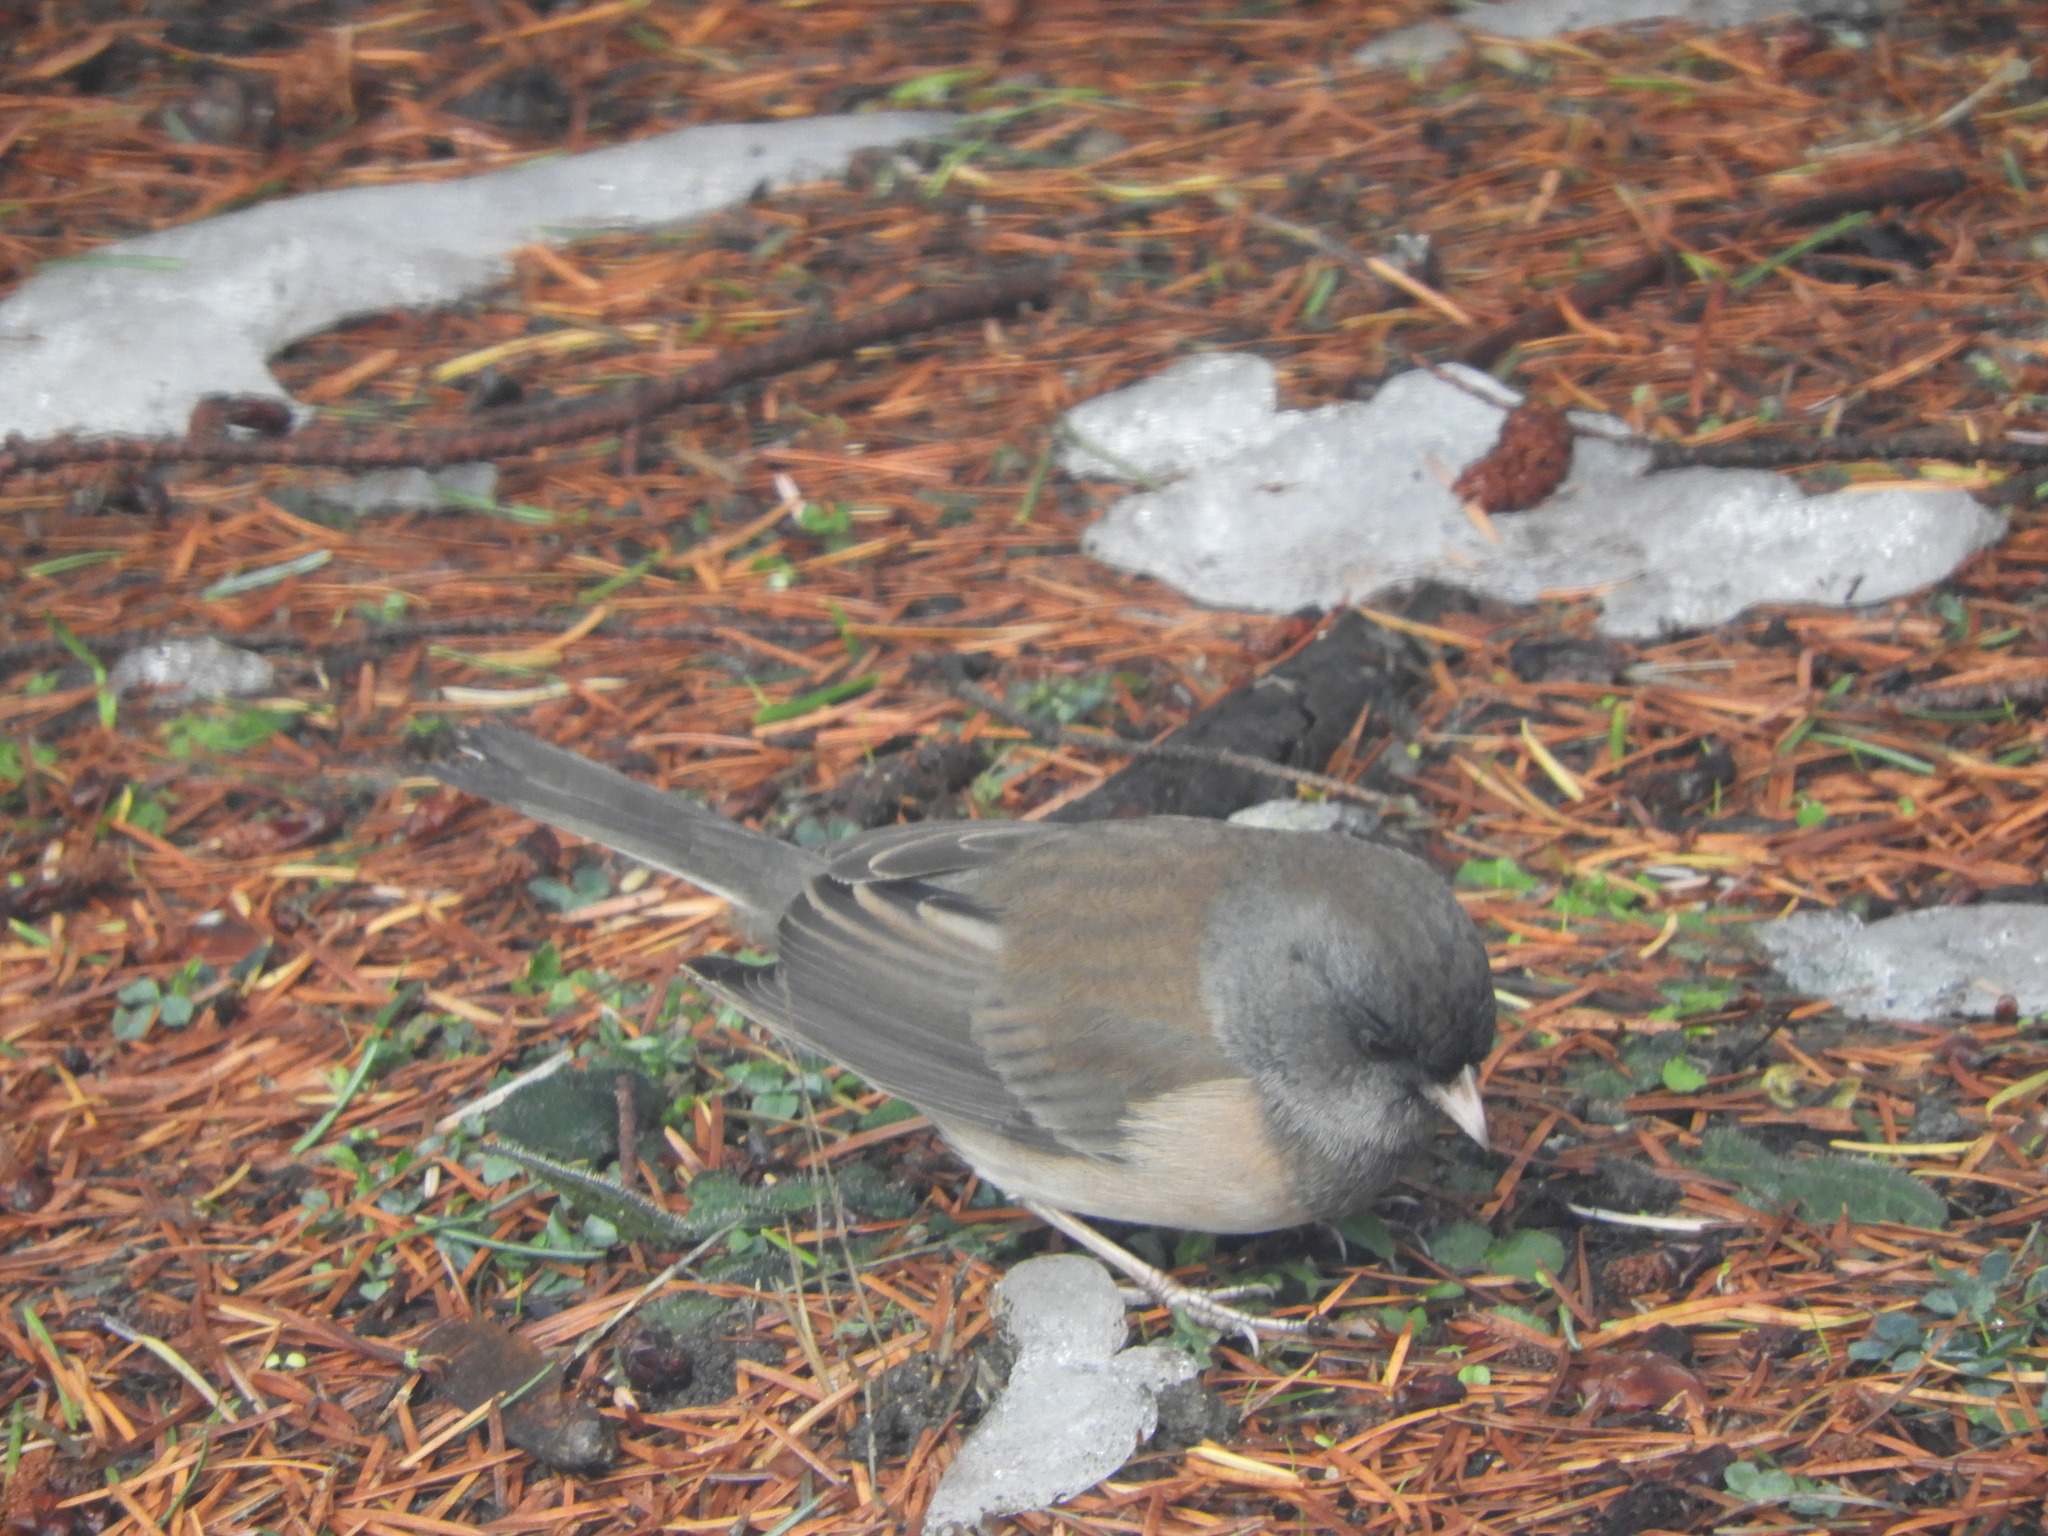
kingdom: Animalia
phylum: Chordata
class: Aves
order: Passeriformes
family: Passerellidae
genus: Junco
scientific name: Junco hyemalis
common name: Dark-eyed junco
